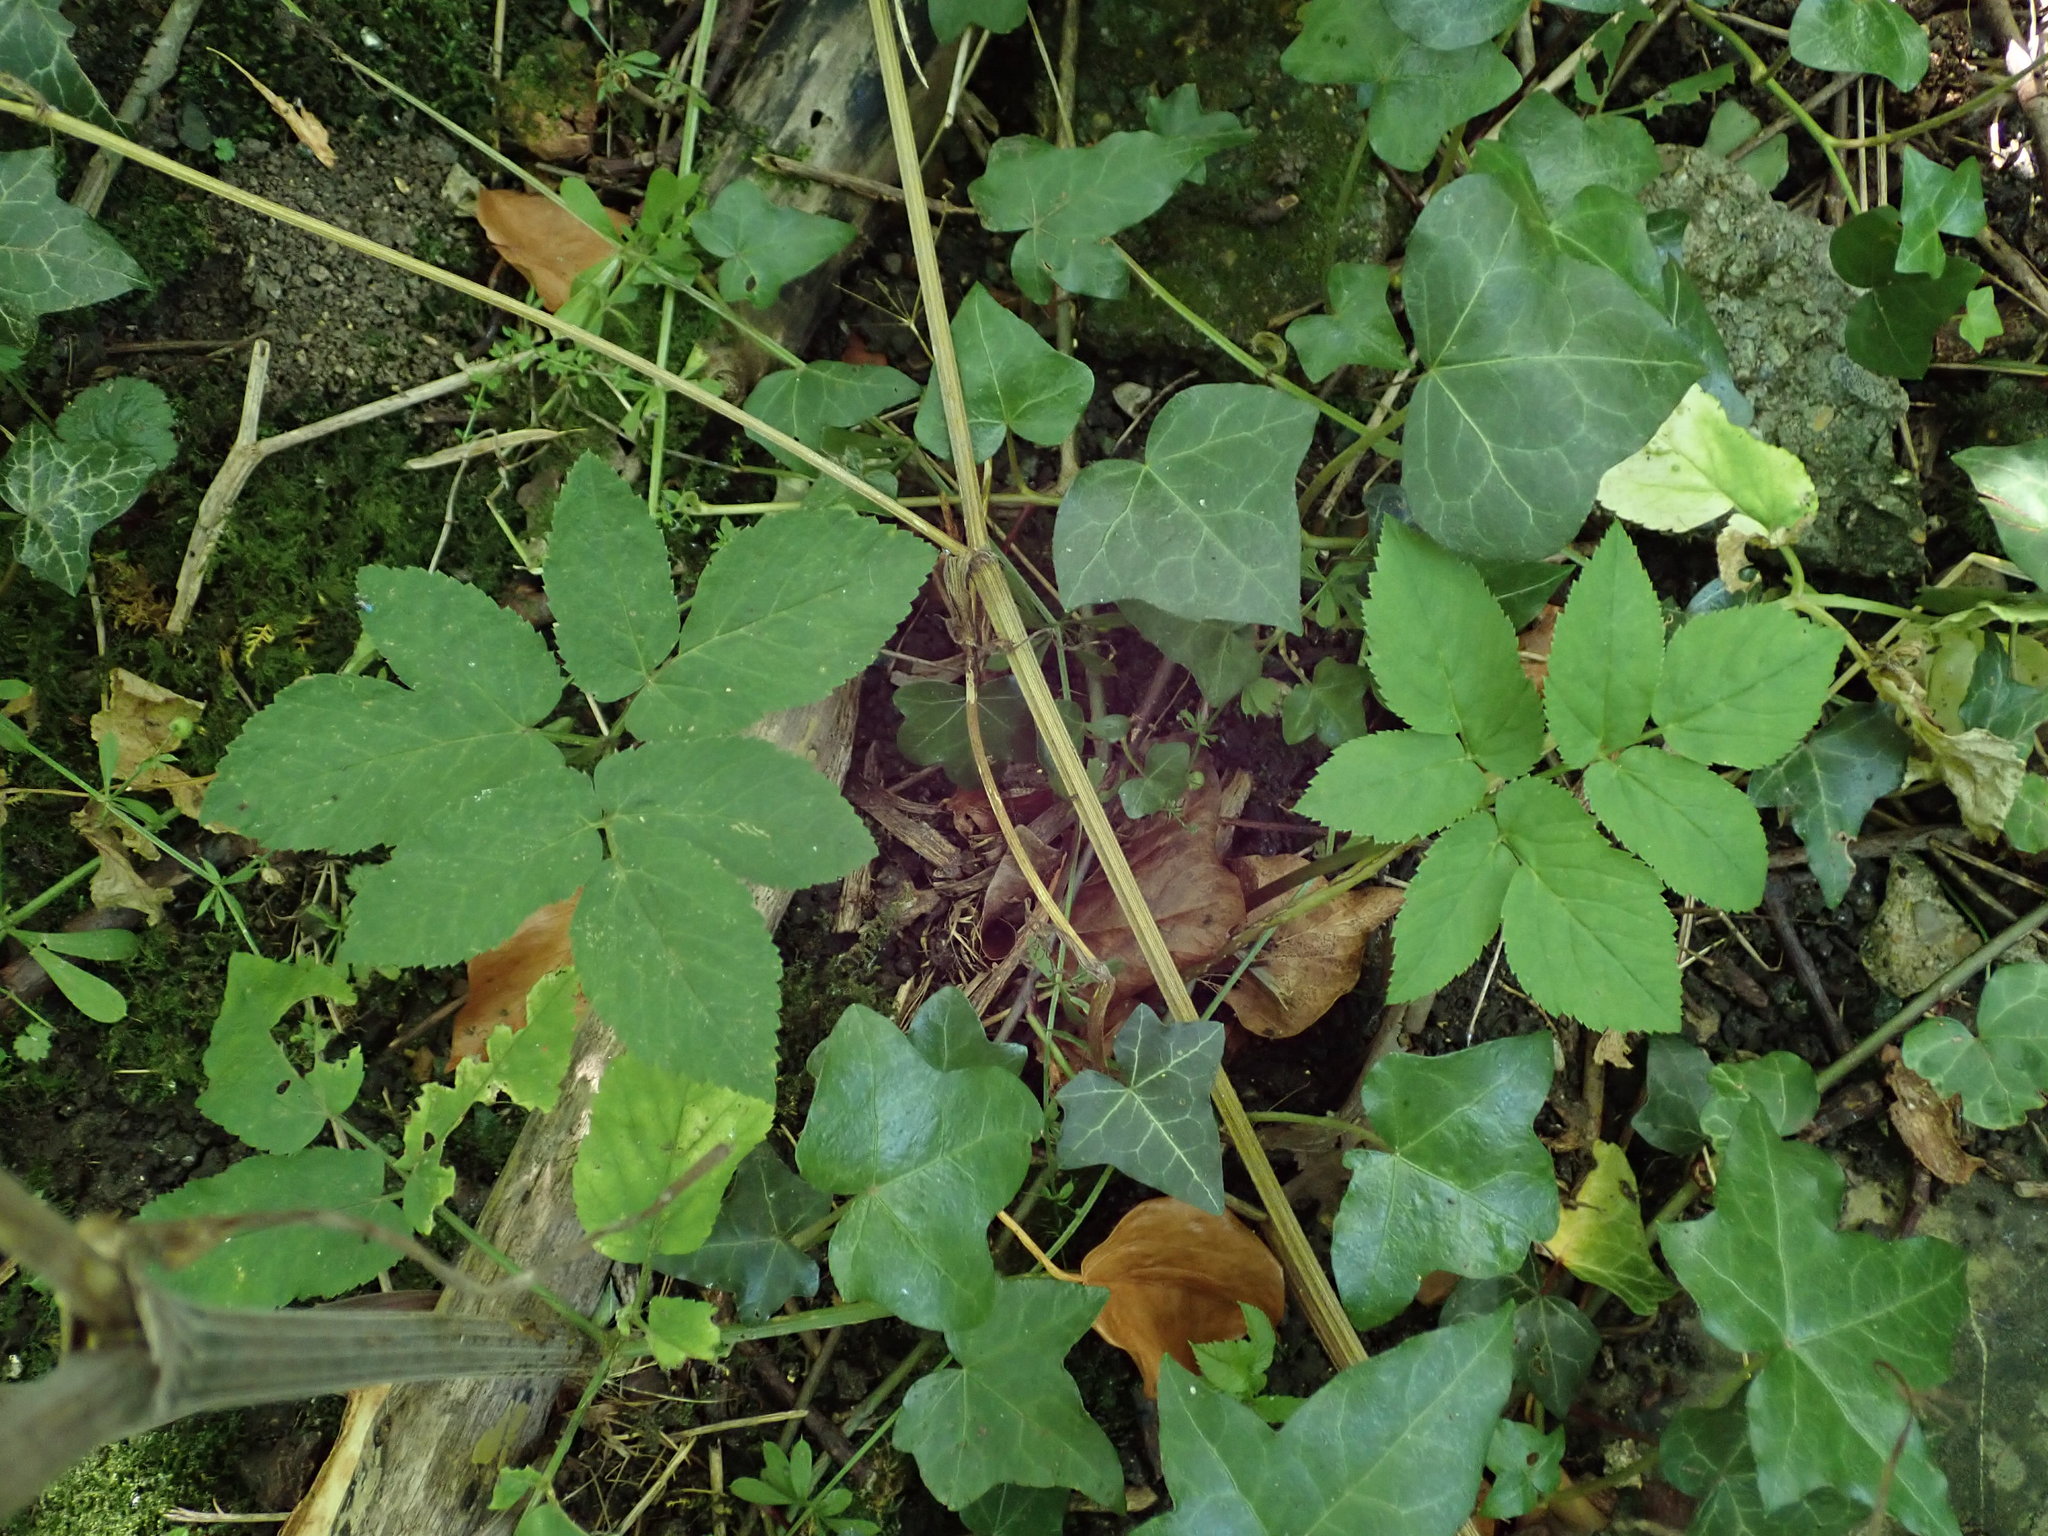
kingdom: Plantae
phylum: Tracheophyta
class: Magnoliopsida
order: Apiales
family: Apiaceae
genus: Aegopodium
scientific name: Aegopodium podagraria
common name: Ground-elder
